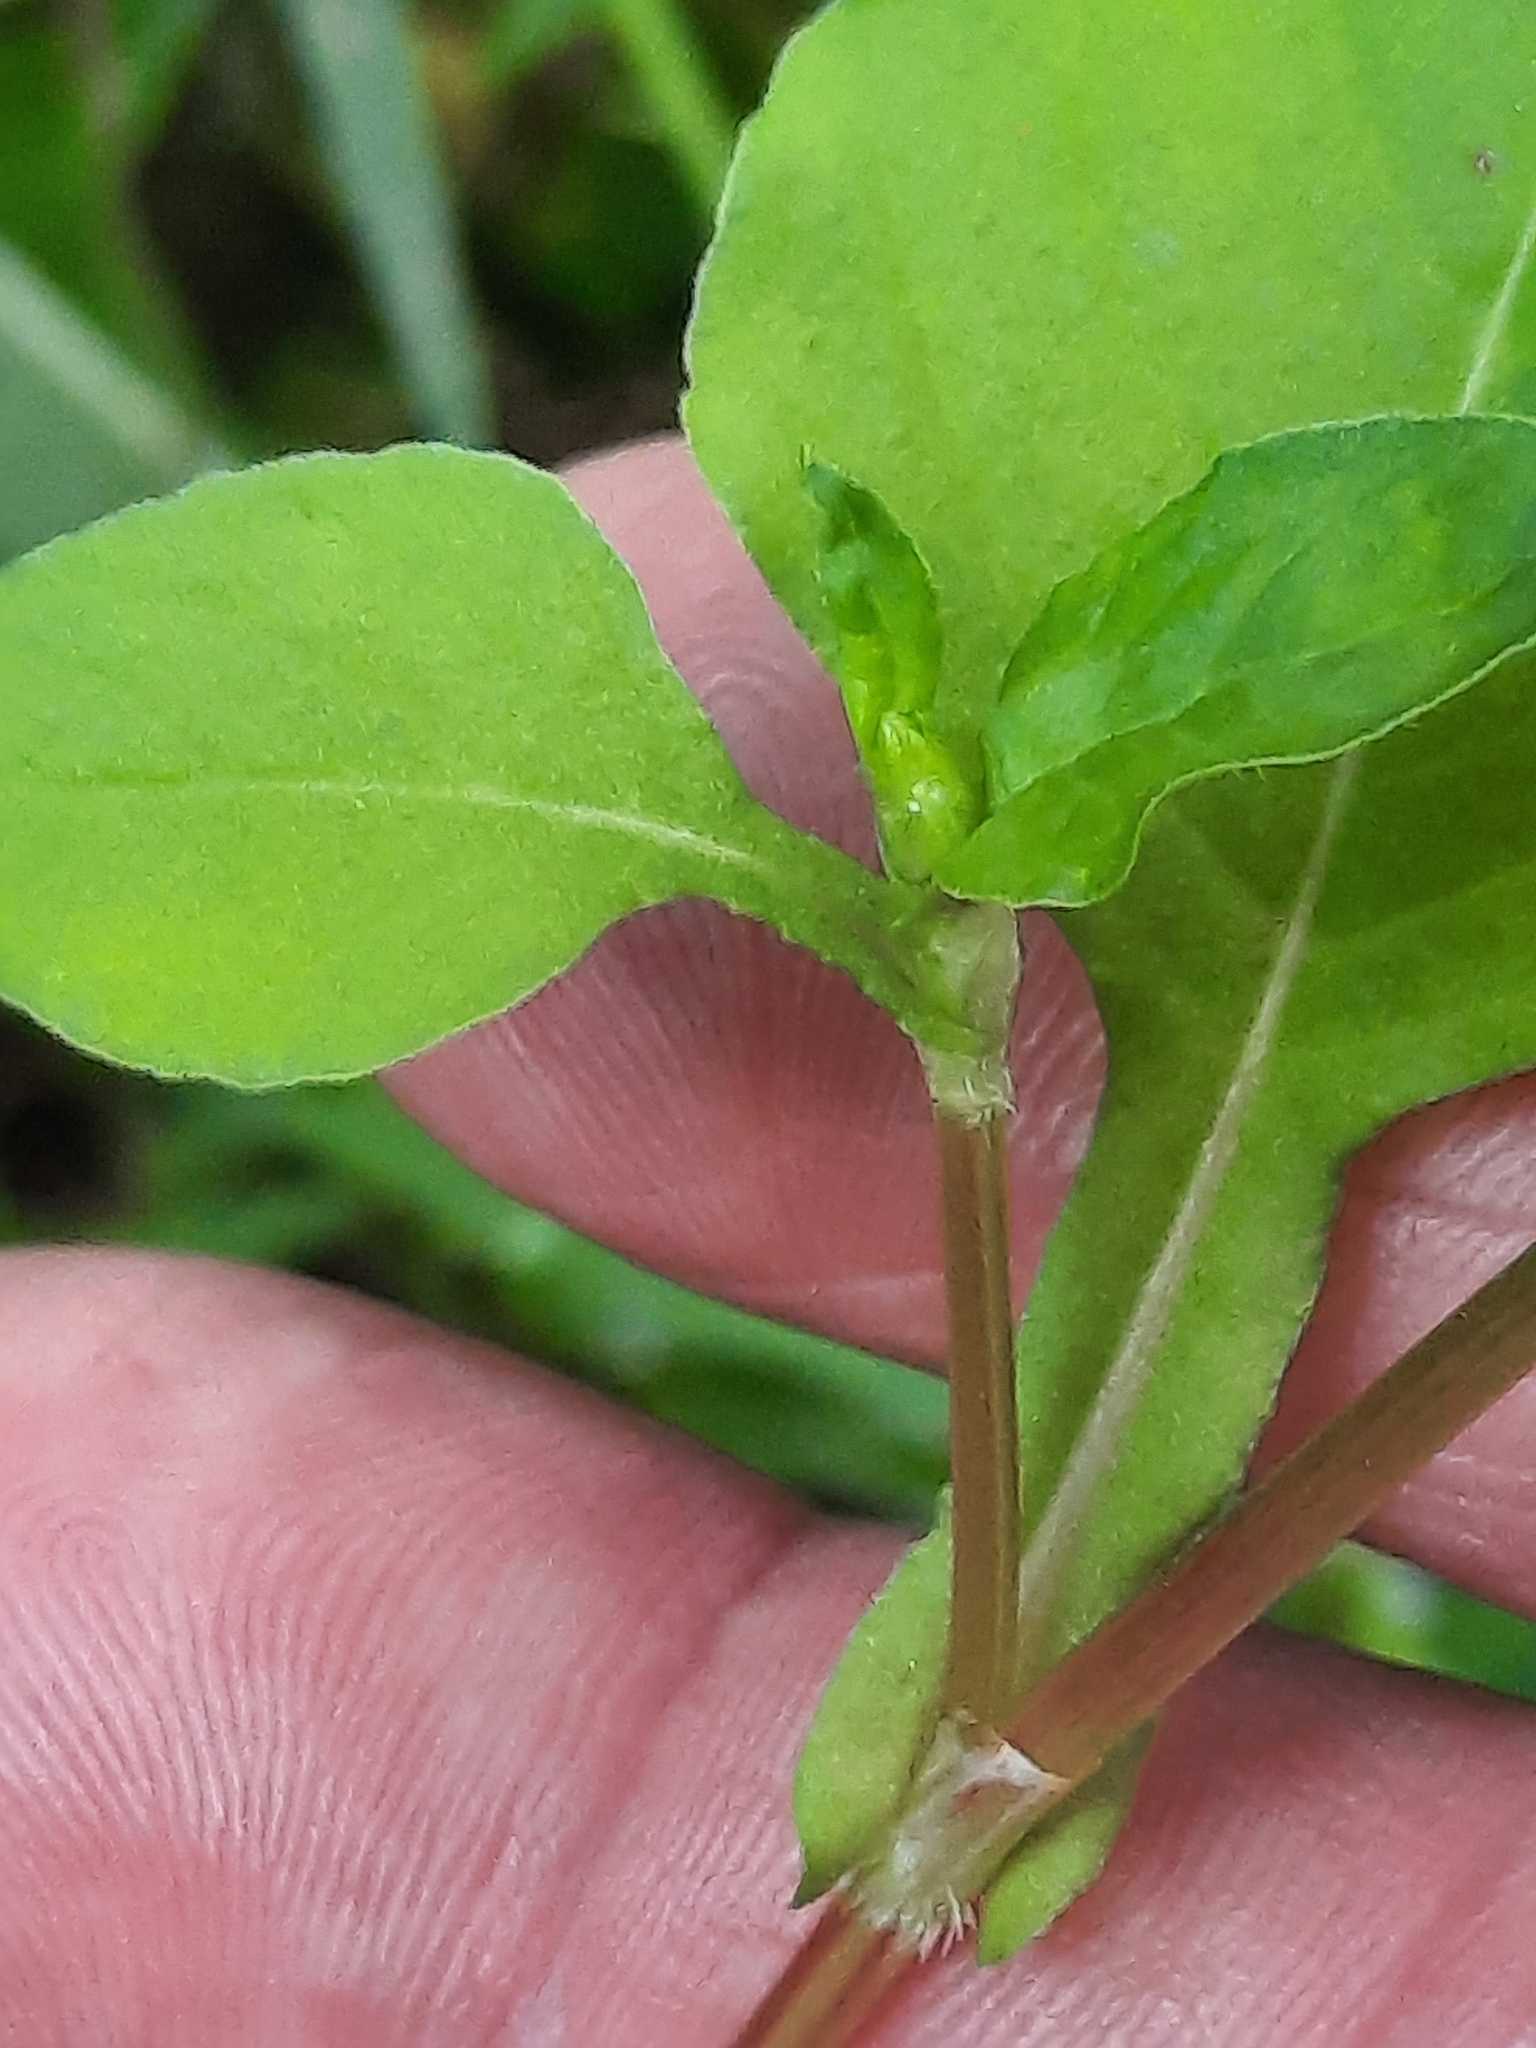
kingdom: Plantae
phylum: Tracheophyta
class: Magnoliopsida
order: Caryophyllales
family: Polygonaceae
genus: Persicaria
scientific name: Persicaria nepalensis
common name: Nepal persicaria
